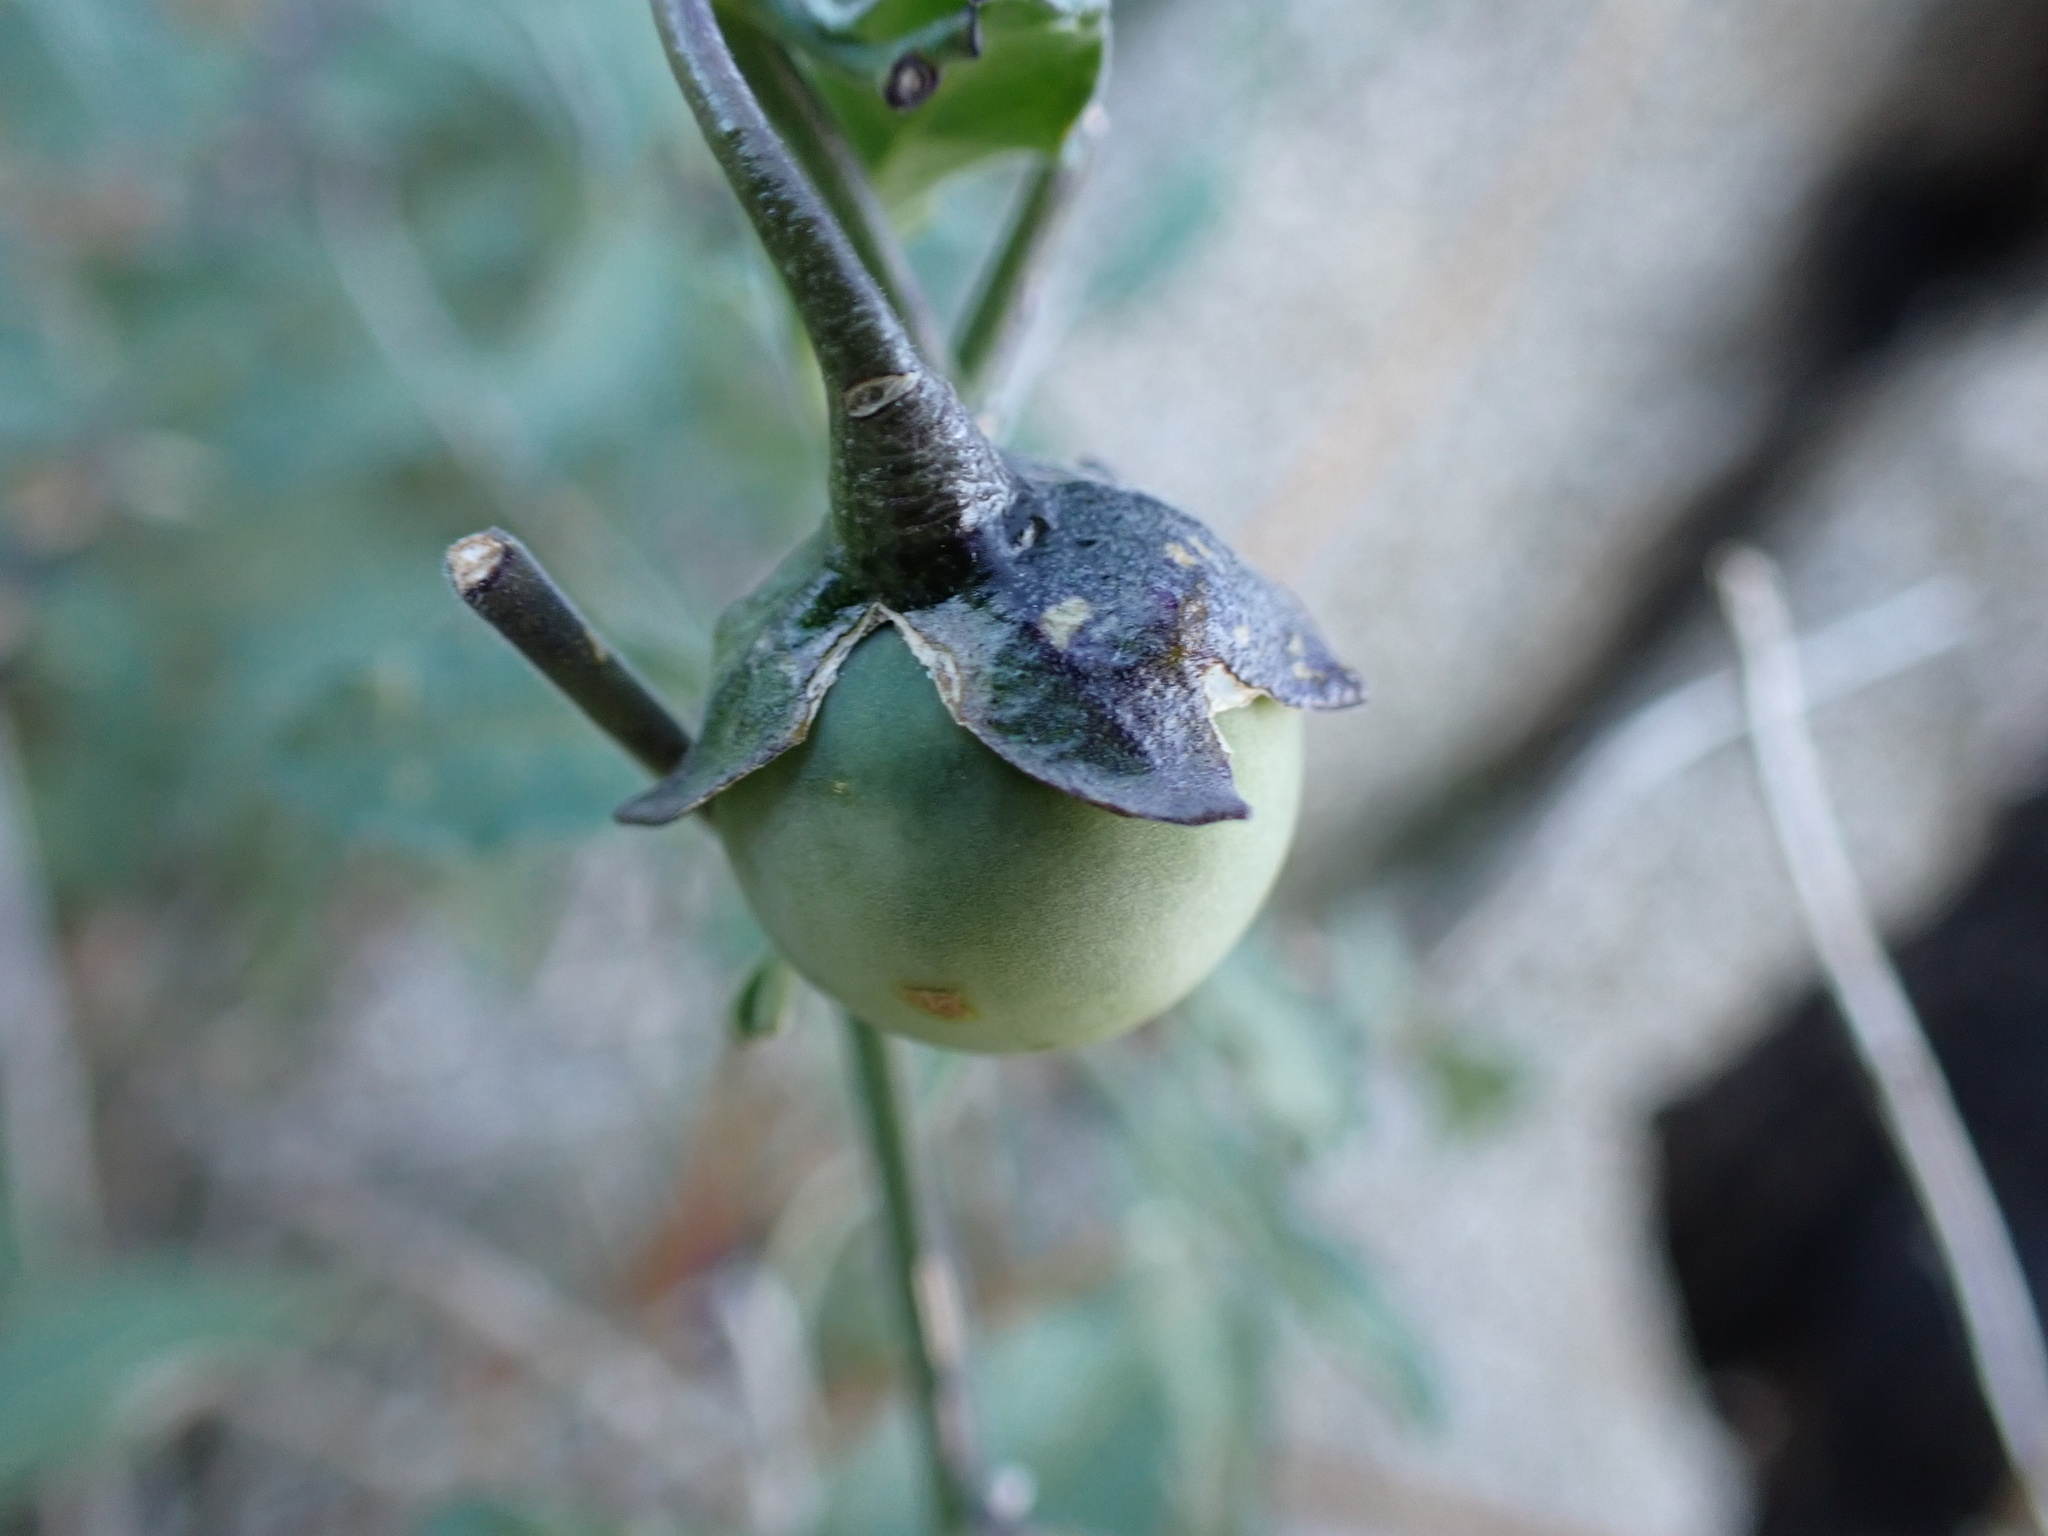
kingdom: Plantae
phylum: Tracheophyta
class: Magnoliopsida
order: Solanales
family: Solanaceae
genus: Solanum
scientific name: Solanum umbelliferum
